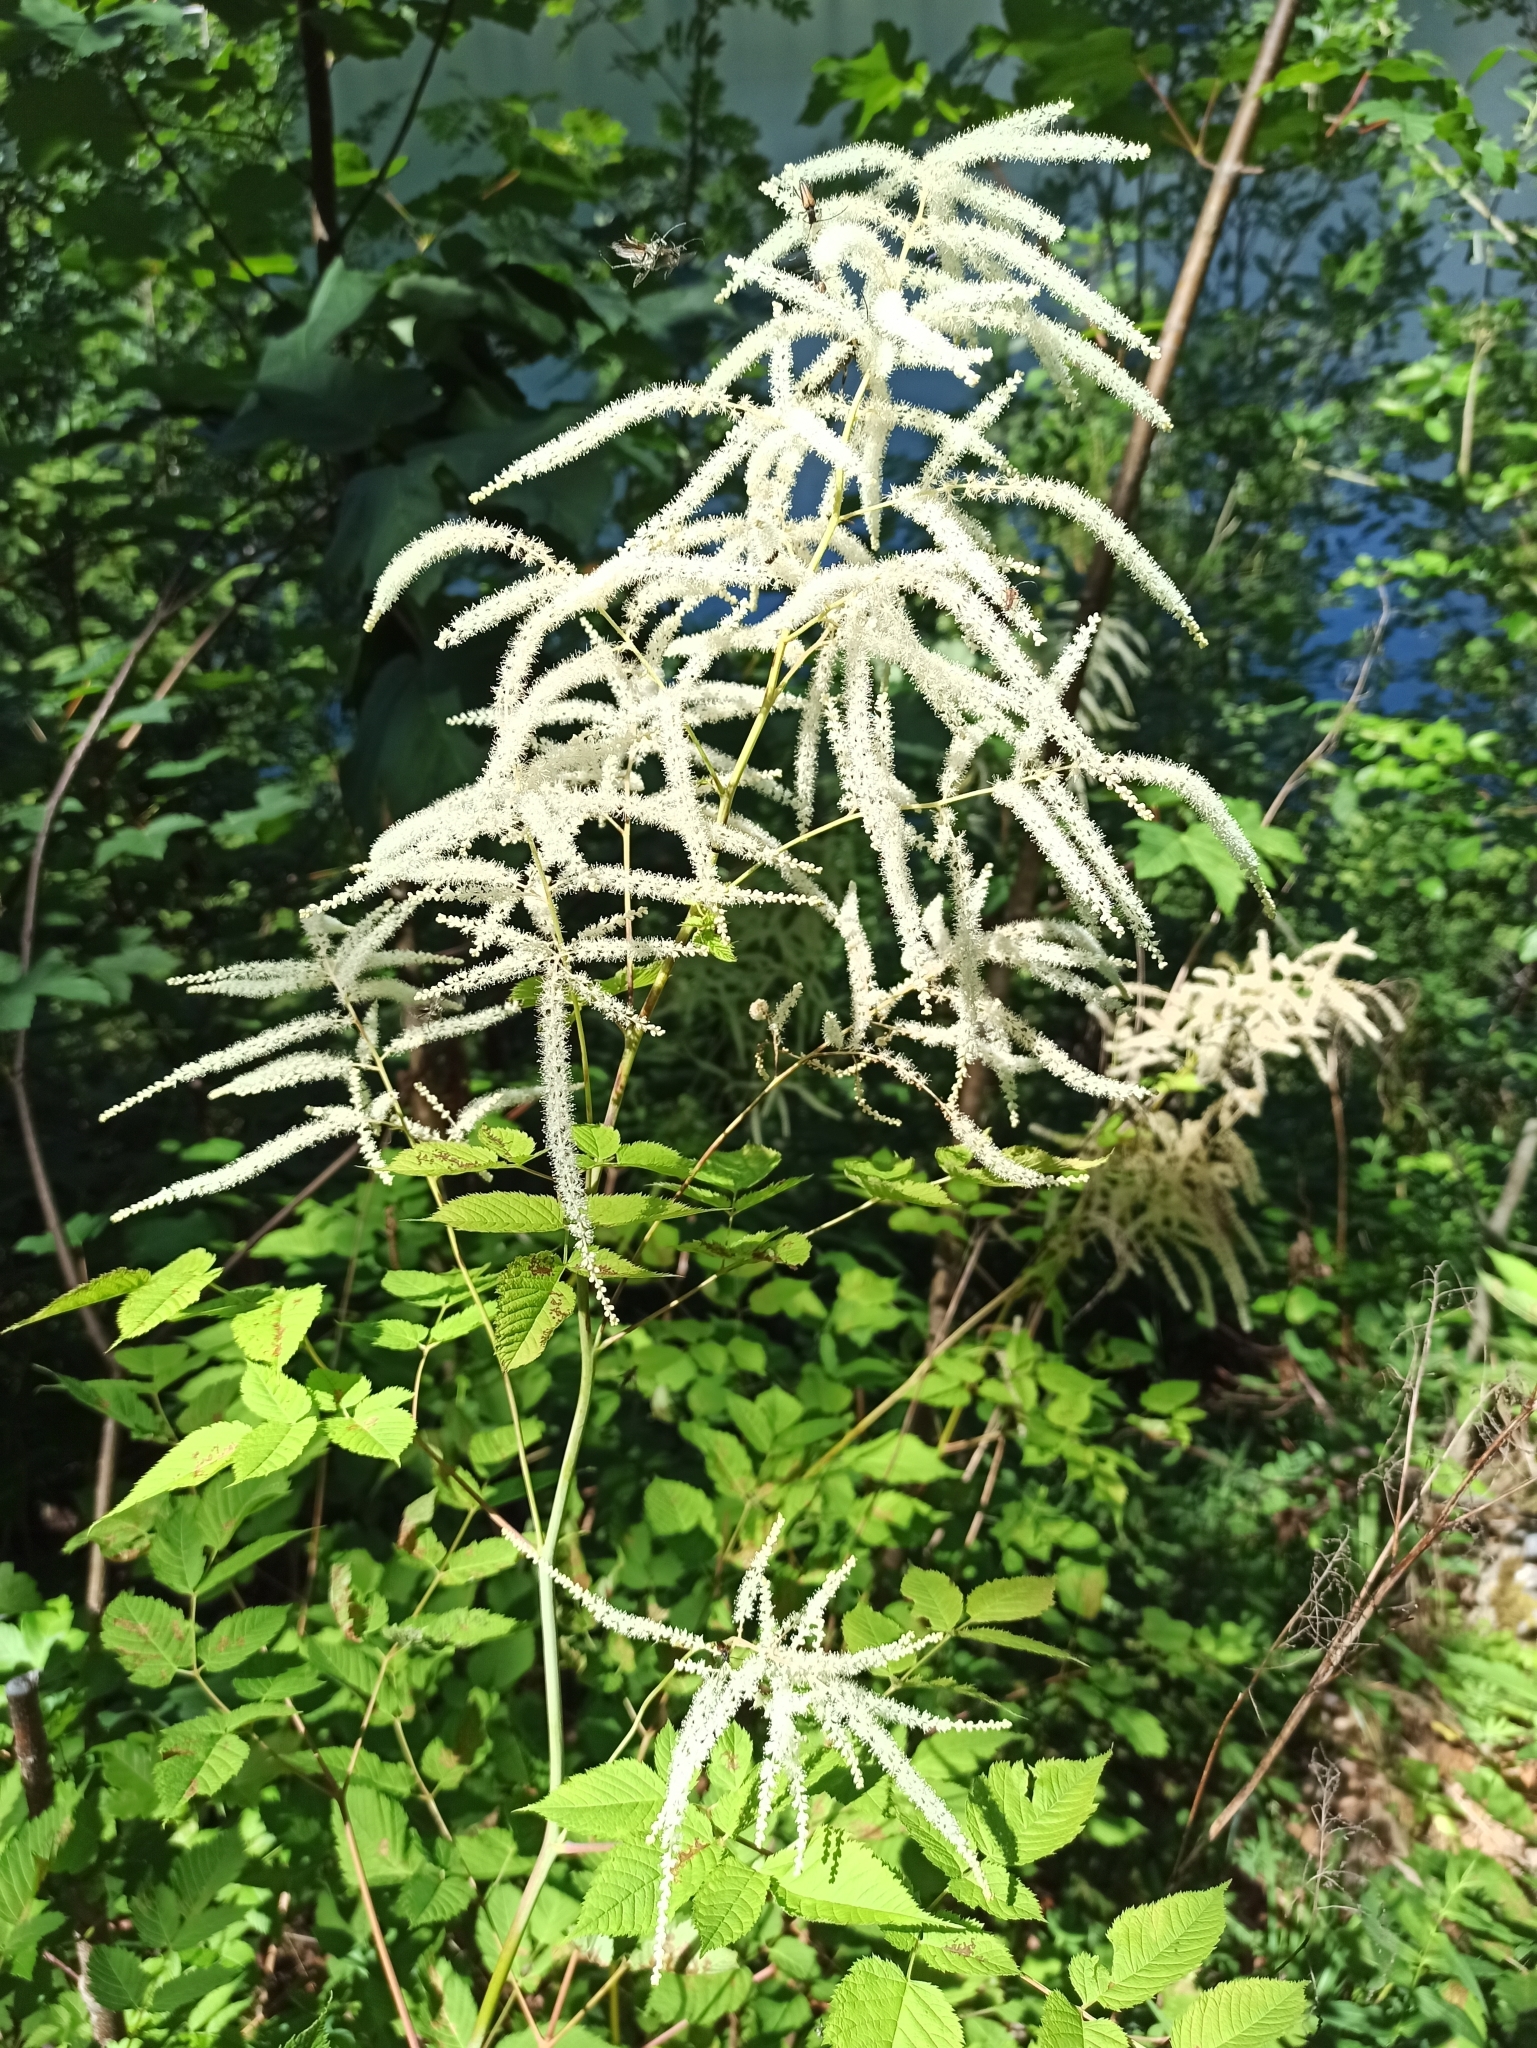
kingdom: Plantae
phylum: Tracheophyta
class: Magnoliopsida
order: Rosales
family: Rosaceae
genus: Aruncus
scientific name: Aruncus dioicus
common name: Buck's-beard
